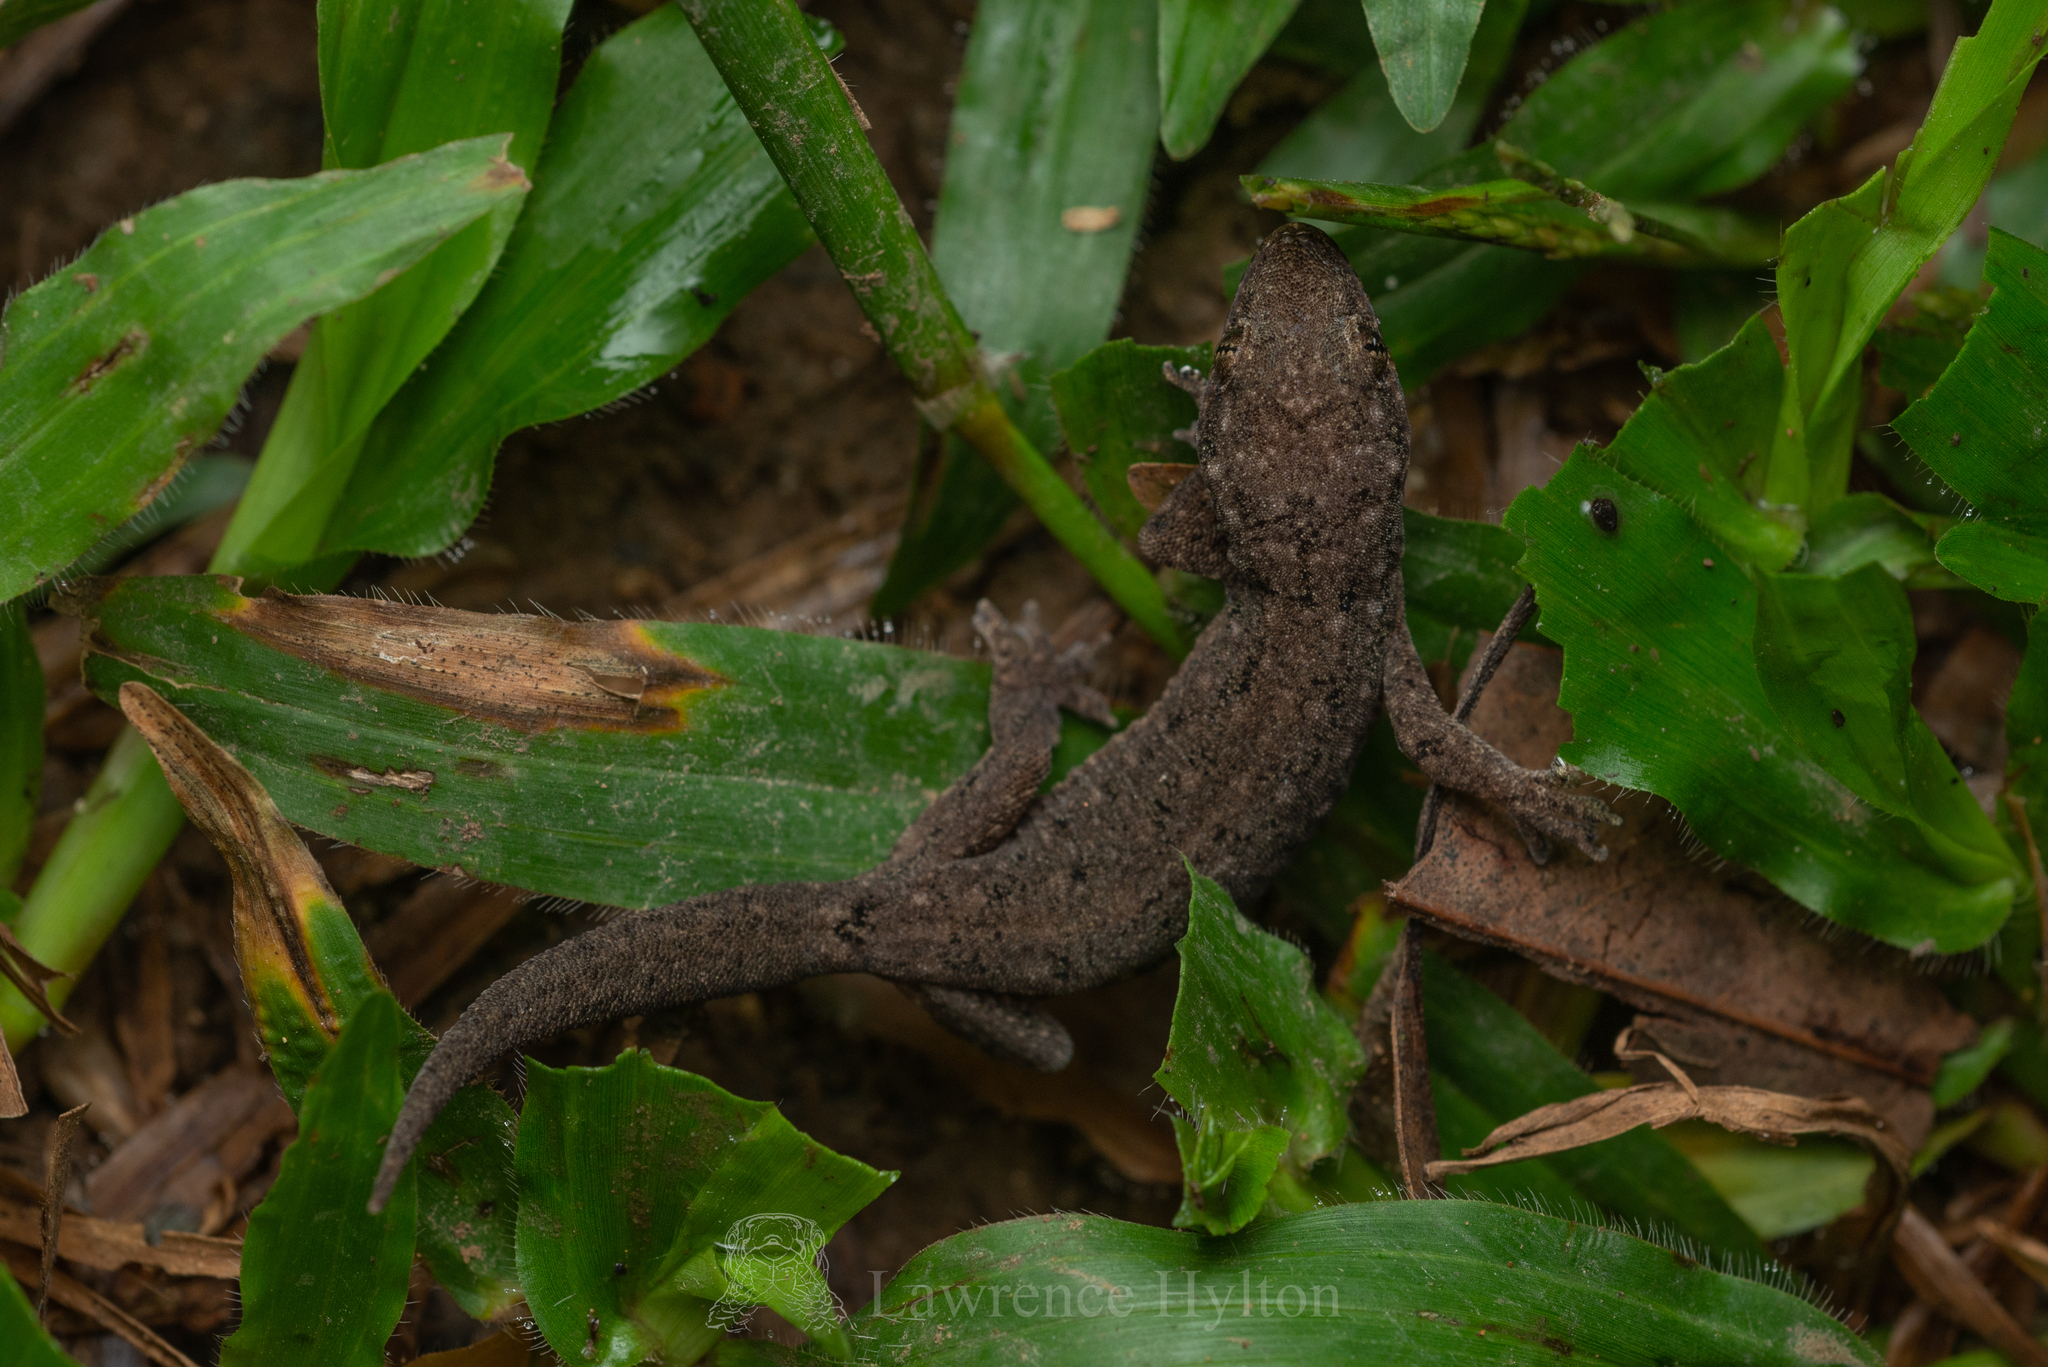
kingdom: Animalia
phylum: Chordata
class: Squamata
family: Gekkonidae
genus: Hemidactylus
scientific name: Hemidactylus bowringii
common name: Oriental leaf-toed gecko
